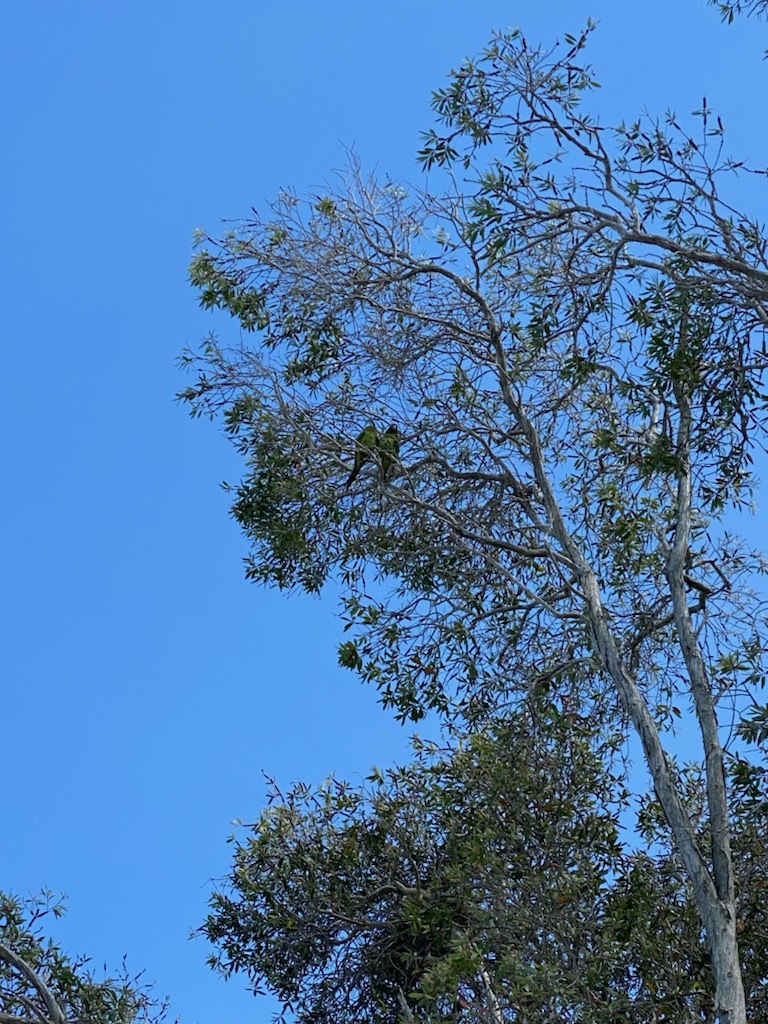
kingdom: Animalia
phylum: Chordata
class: Aves
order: Psittaciformes
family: Psittacidae
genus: Aratinga
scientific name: Aratinga acuticaudata
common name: Blue-crowned parakeet
